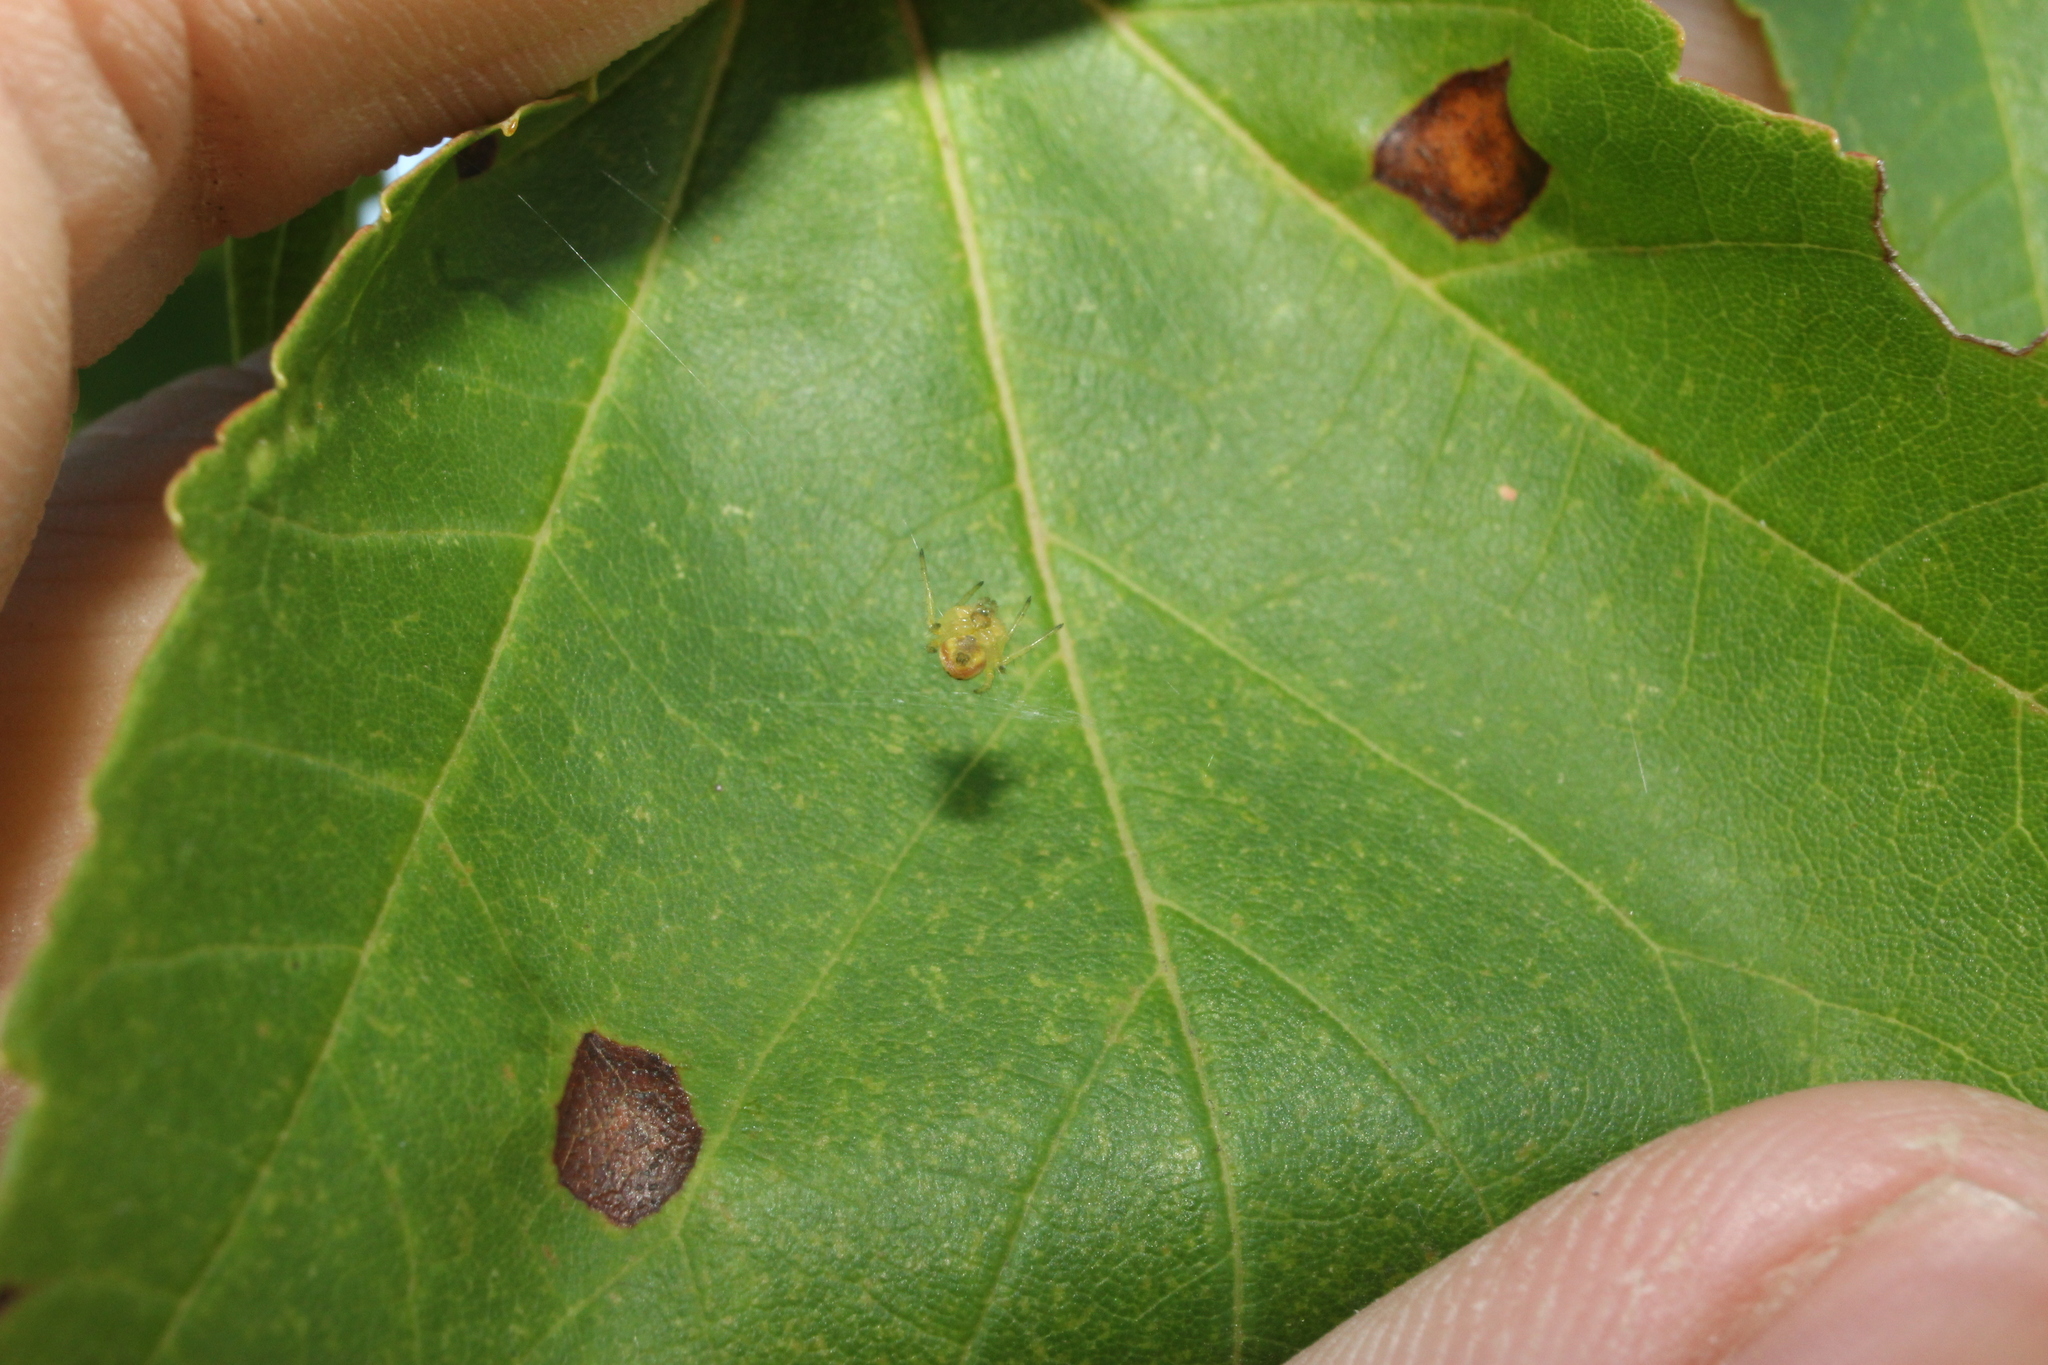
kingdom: Animalia
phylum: Arthropoda
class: Arachnida
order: Araneae
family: Araneidae
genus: Araniella
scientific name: Araniella displicata
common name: Sixspotted orb weaver
